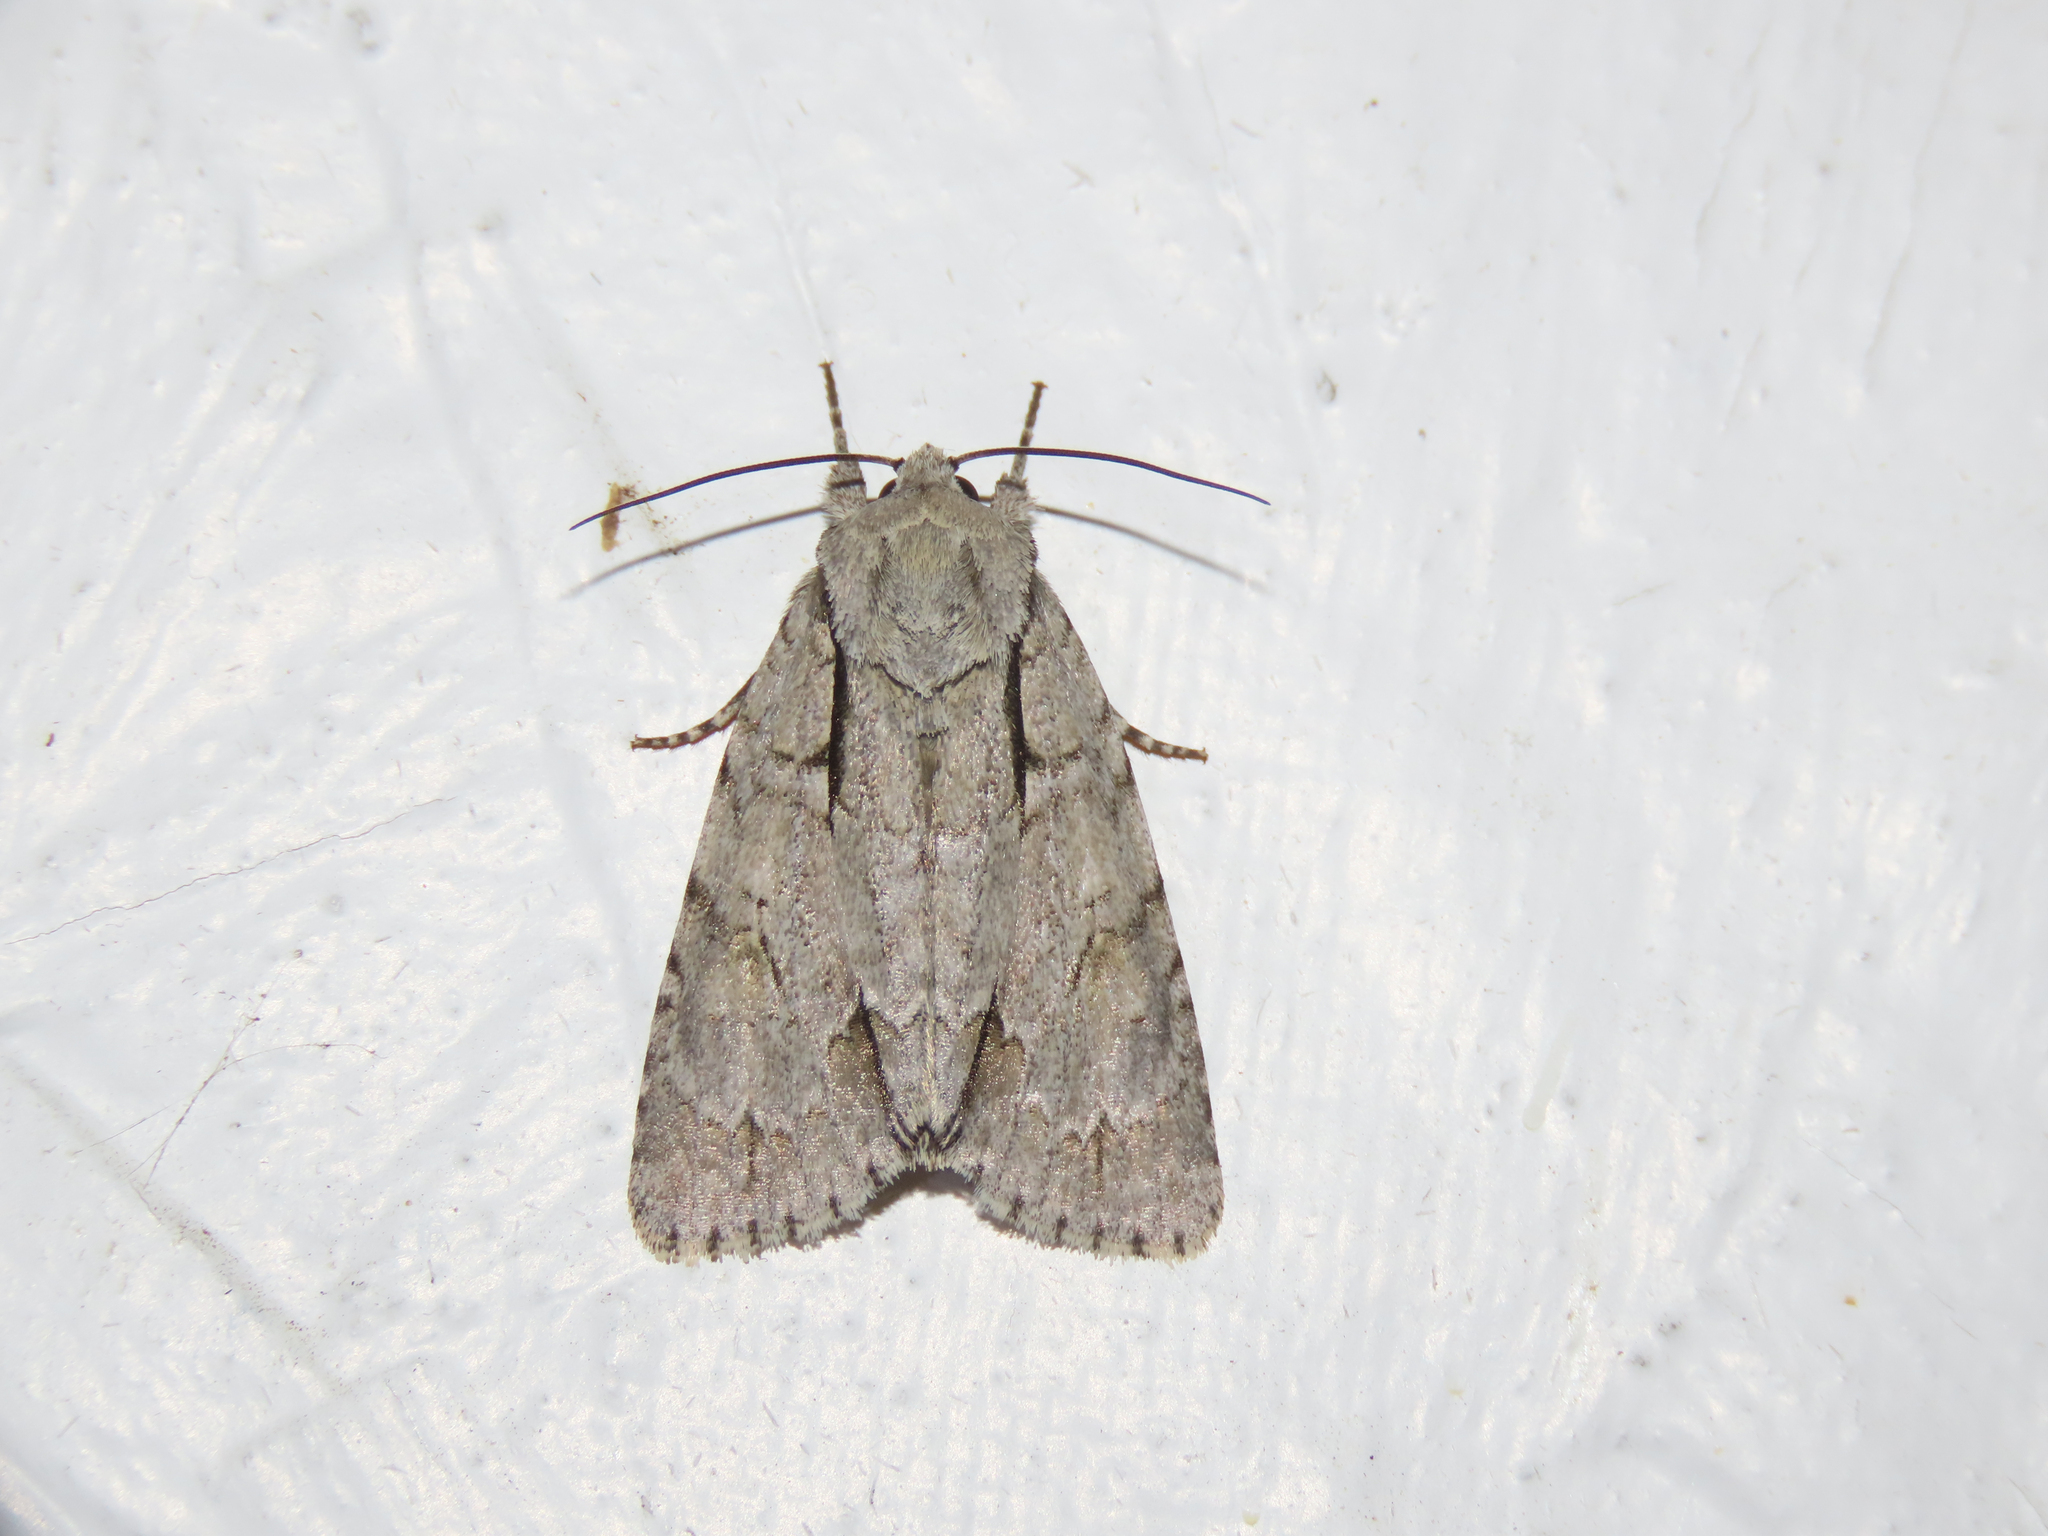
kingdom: Animalia
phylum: Arthropoda
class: Insecta
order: Lepidoptera
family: Noctuidae
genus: Acronicta
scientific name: Acronicta interrupta
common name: Interrupted dagger
